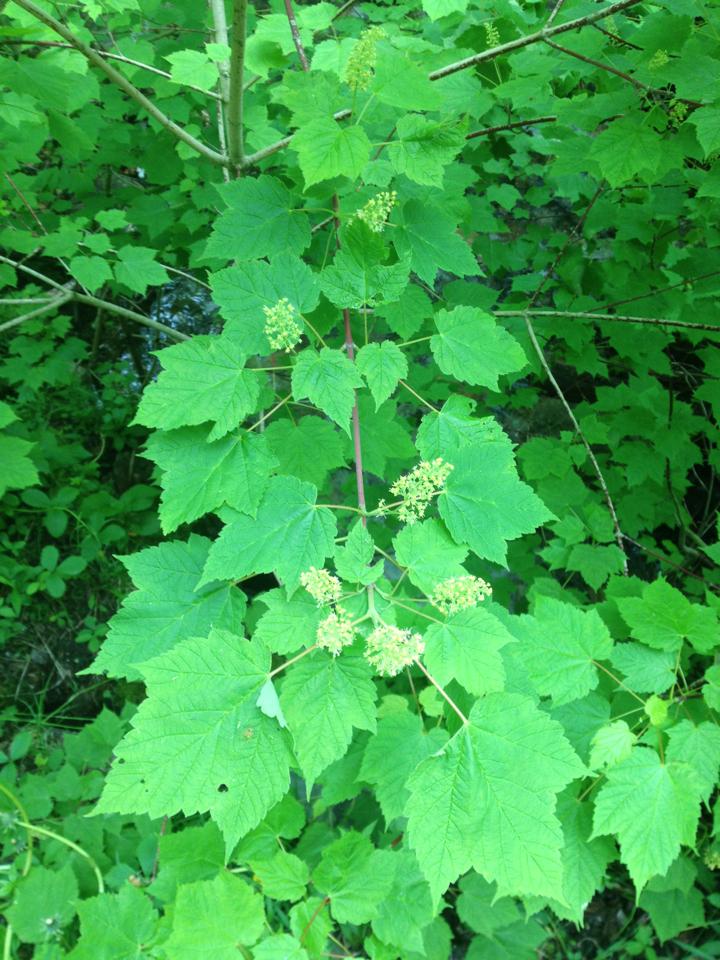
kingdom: Plantae
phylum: Tracheophyta
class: Magnoliopsida
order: Sapindales
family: Sapindaceae
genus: Acer
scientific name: Acer spicatum
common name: Mountain maple
